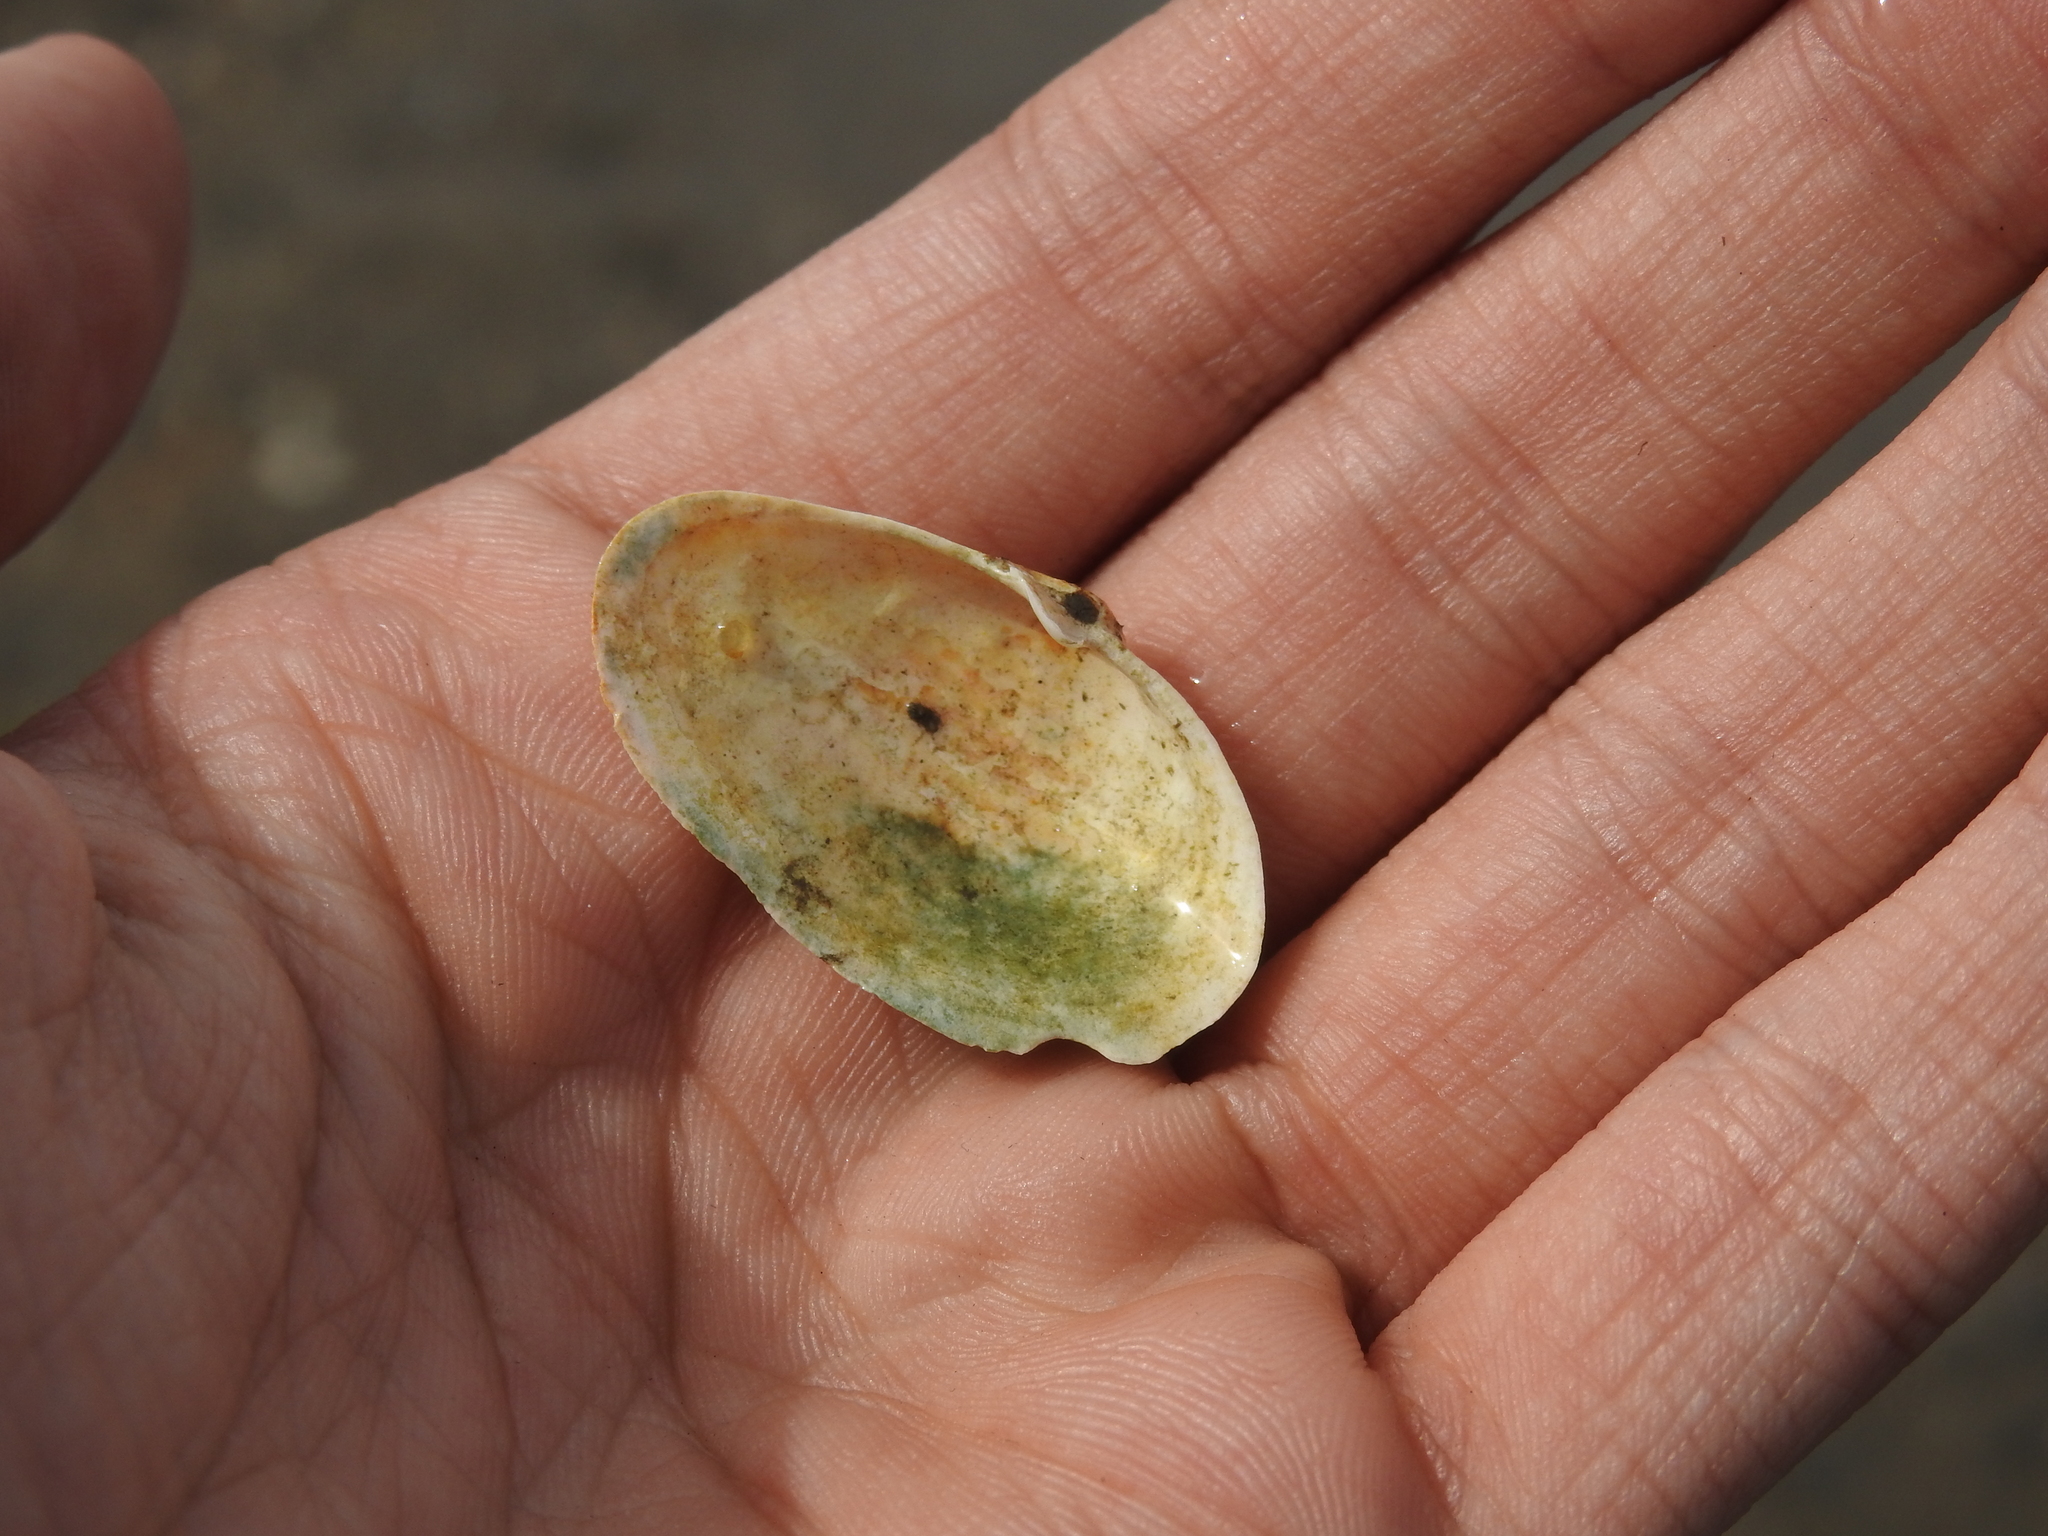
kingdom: Animalia
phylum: Mollusca
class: Bivalvia
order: Myida
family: Myidae
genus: Mya
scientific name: Mya arenaria
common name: Soft-shelled clam
